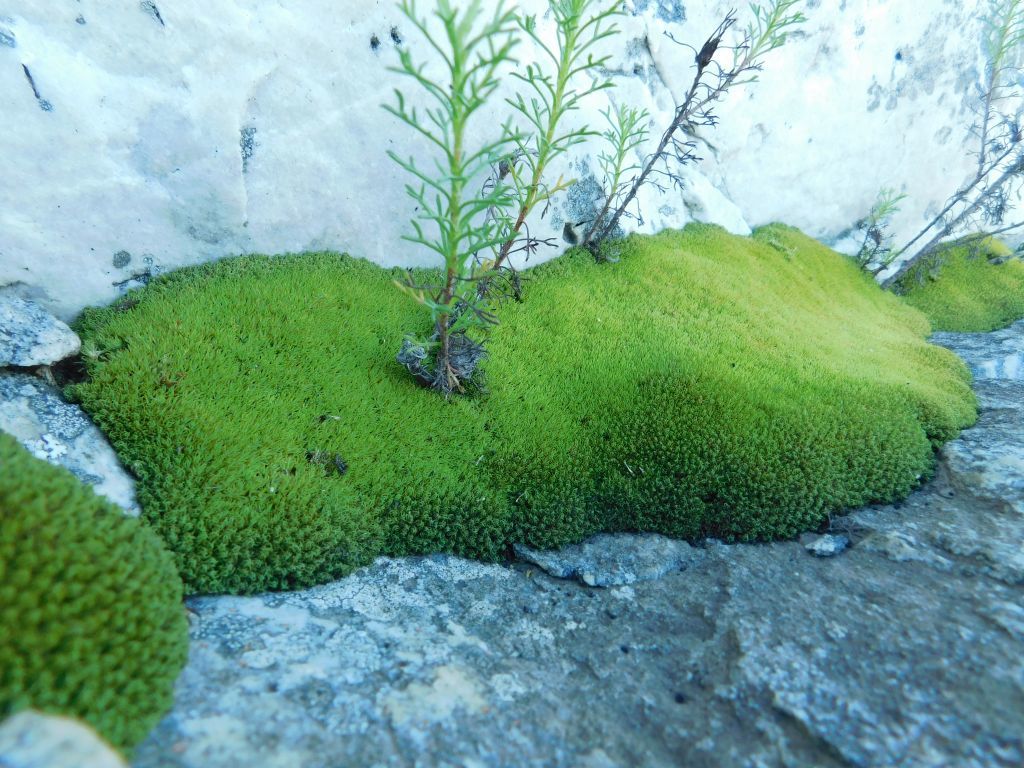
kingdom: Plantae
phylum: Bryophyta
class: Bryopsida
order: Dicranales
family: Hypodontiaceae
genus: Hypodontium
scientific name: Hypodontium pomiforme
